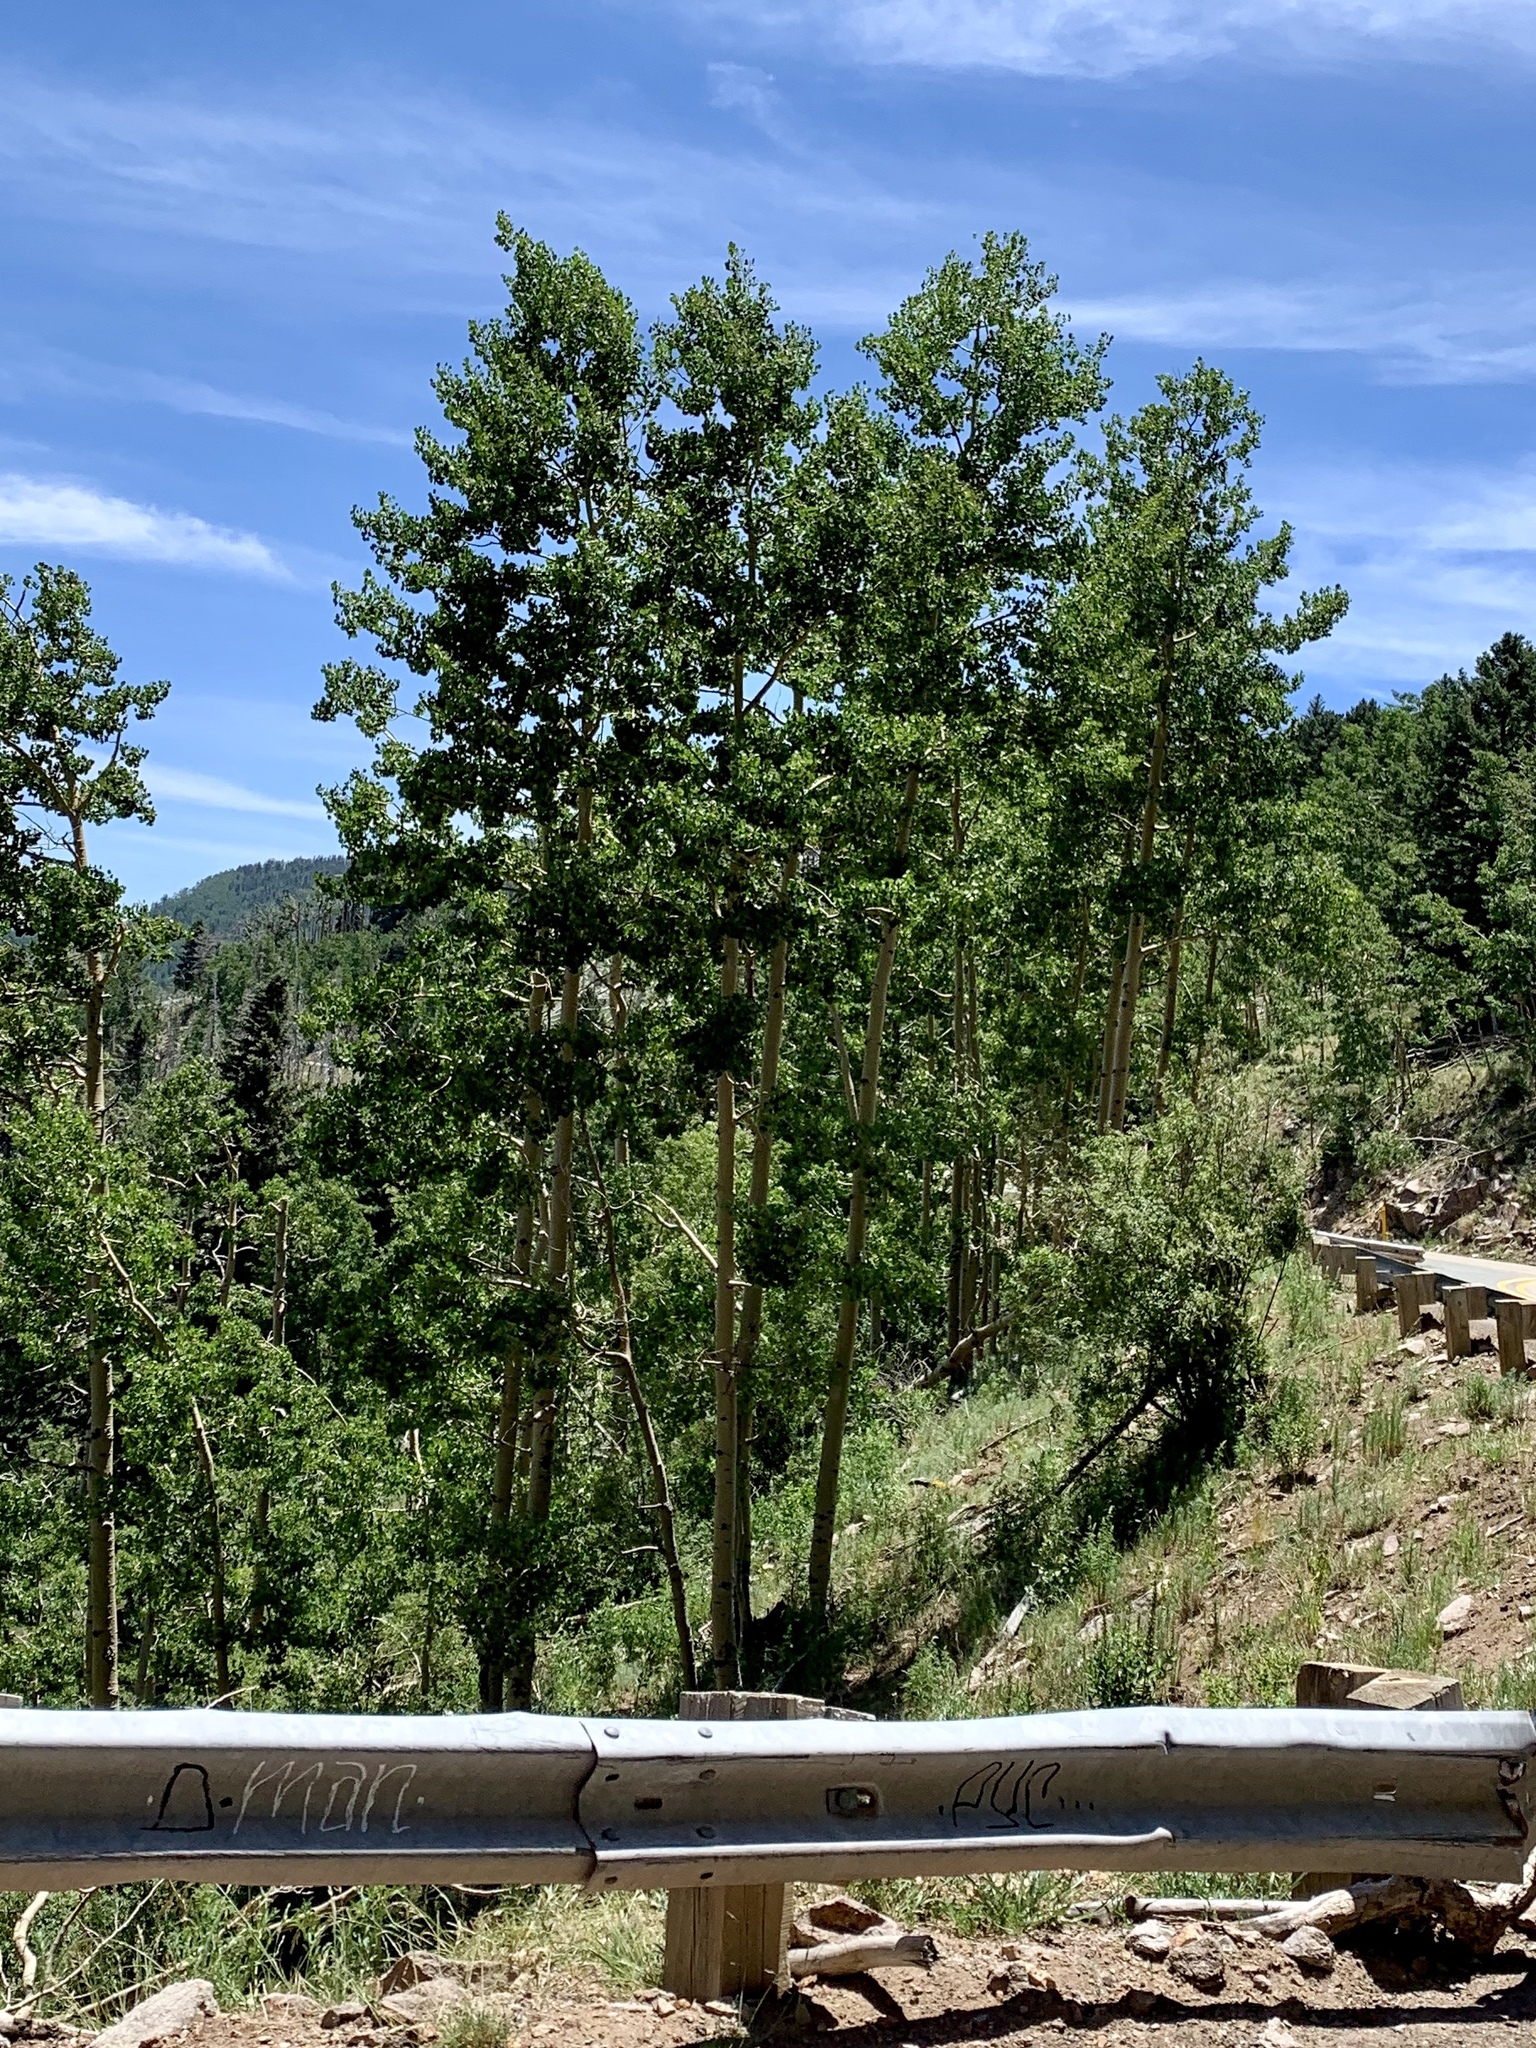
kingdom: Plantae
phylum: Tracheophyta
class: Magnoliopsida
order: Malpighiales
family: Salicaceae
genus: Populus
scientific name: Populus tremuloides
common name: Quaking aspen
